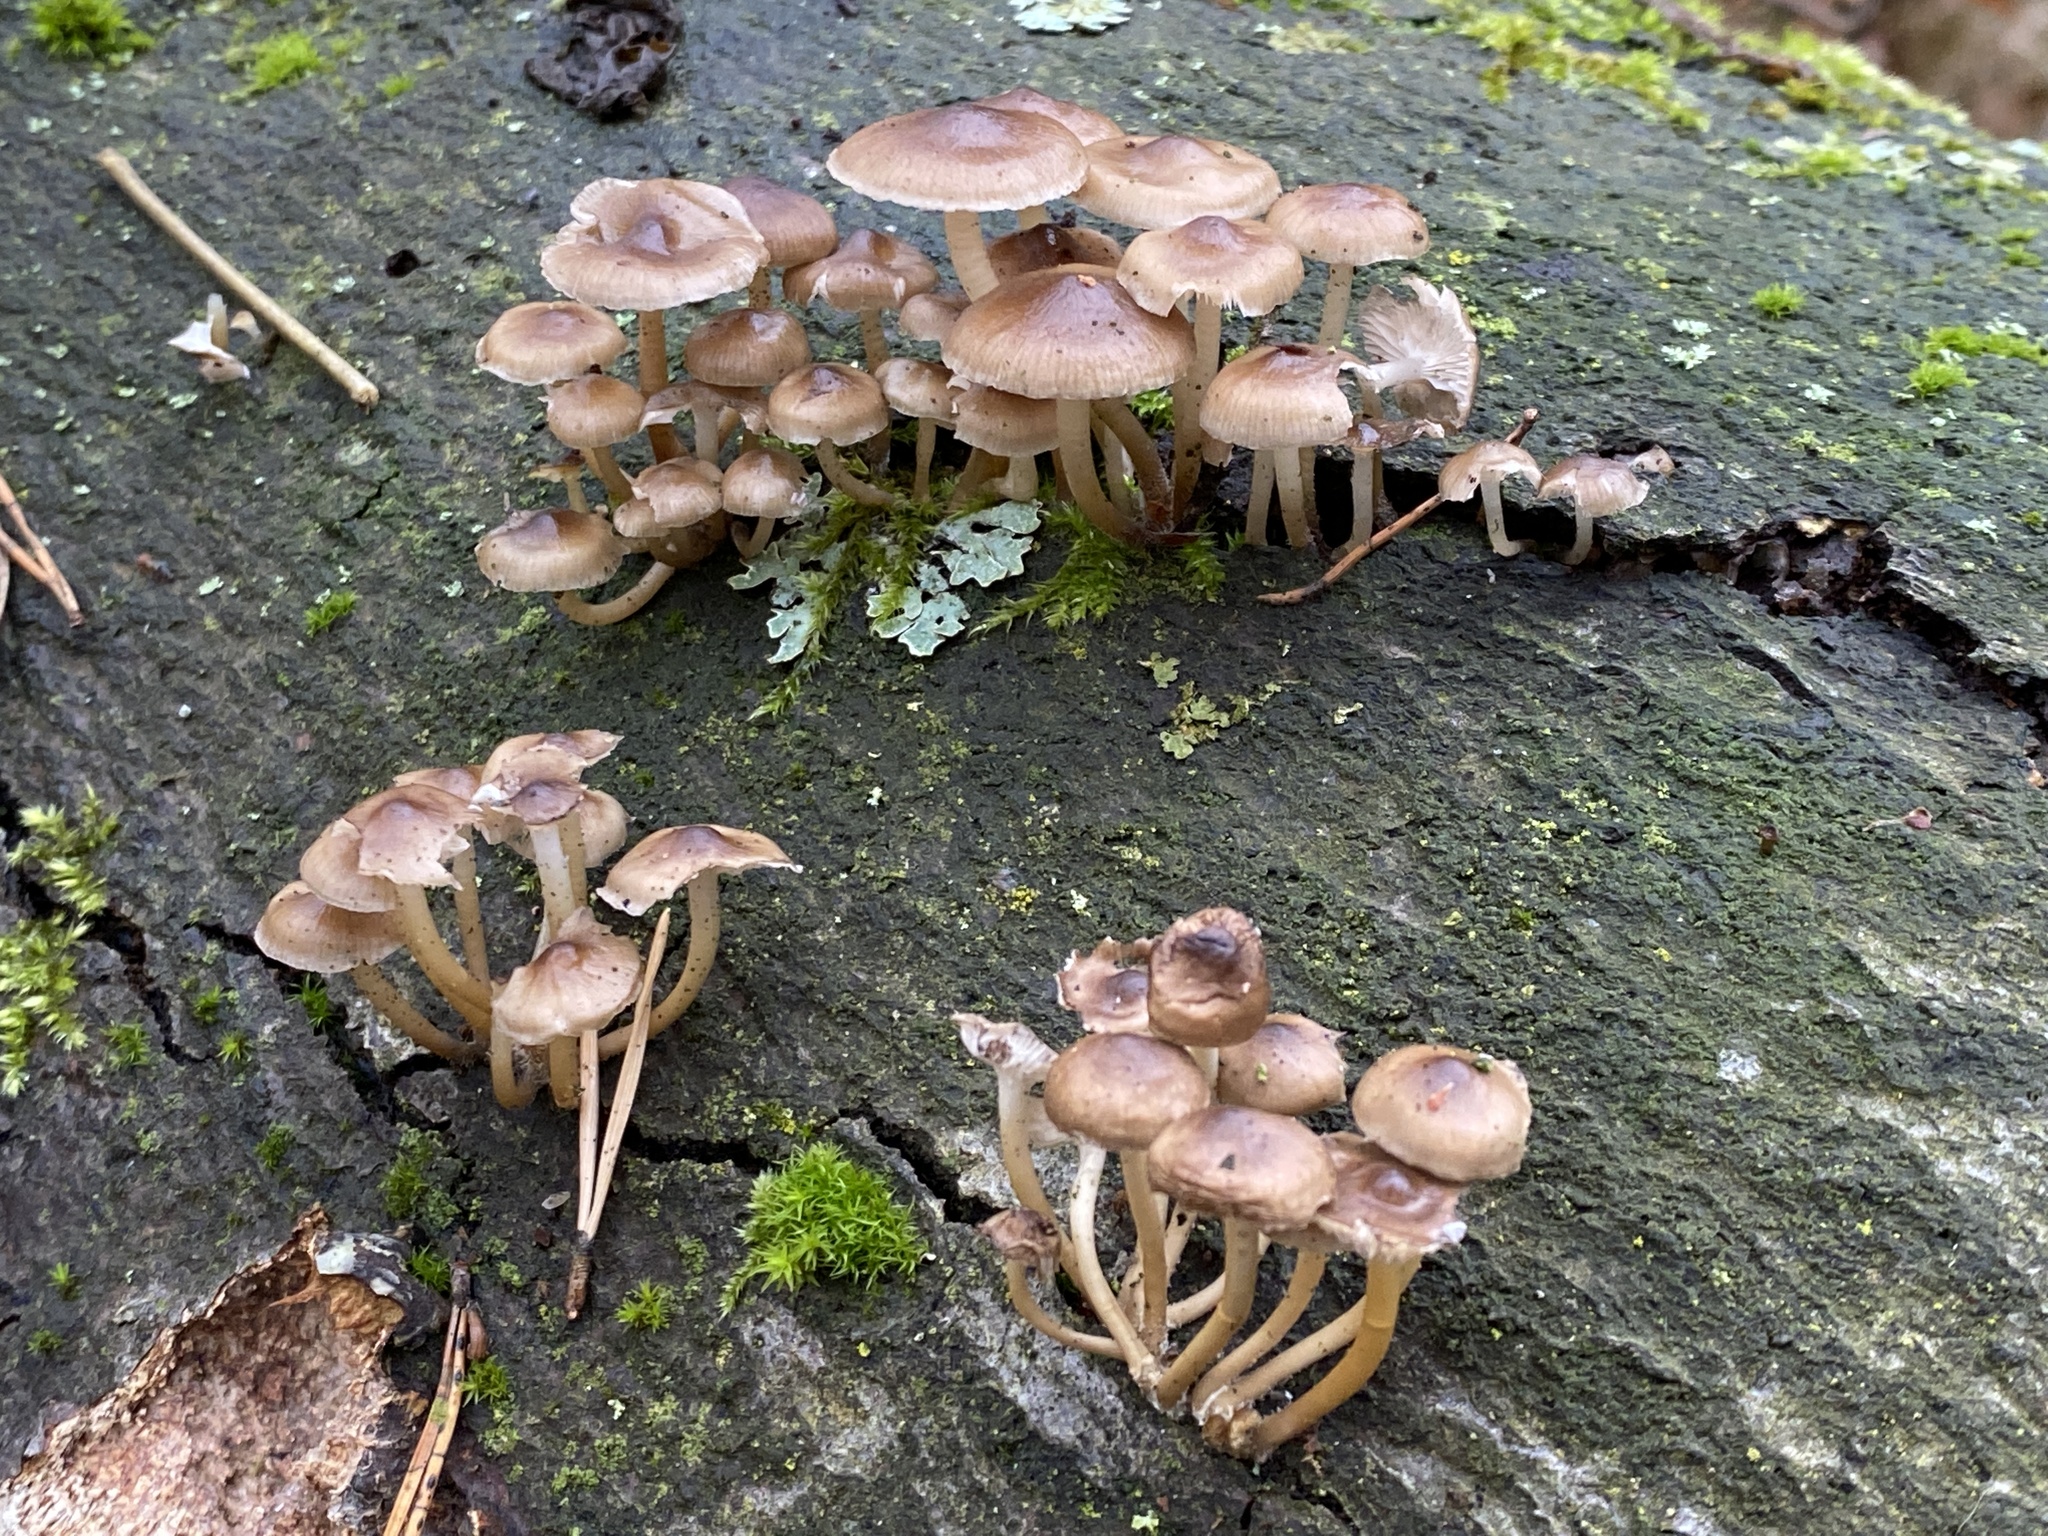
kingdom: Fungi
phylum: Basidiomycota
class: Agaricomycetes
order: Agaricales
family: Mycenaceae
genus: Mycena
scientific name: Mycena tintinnabulum
